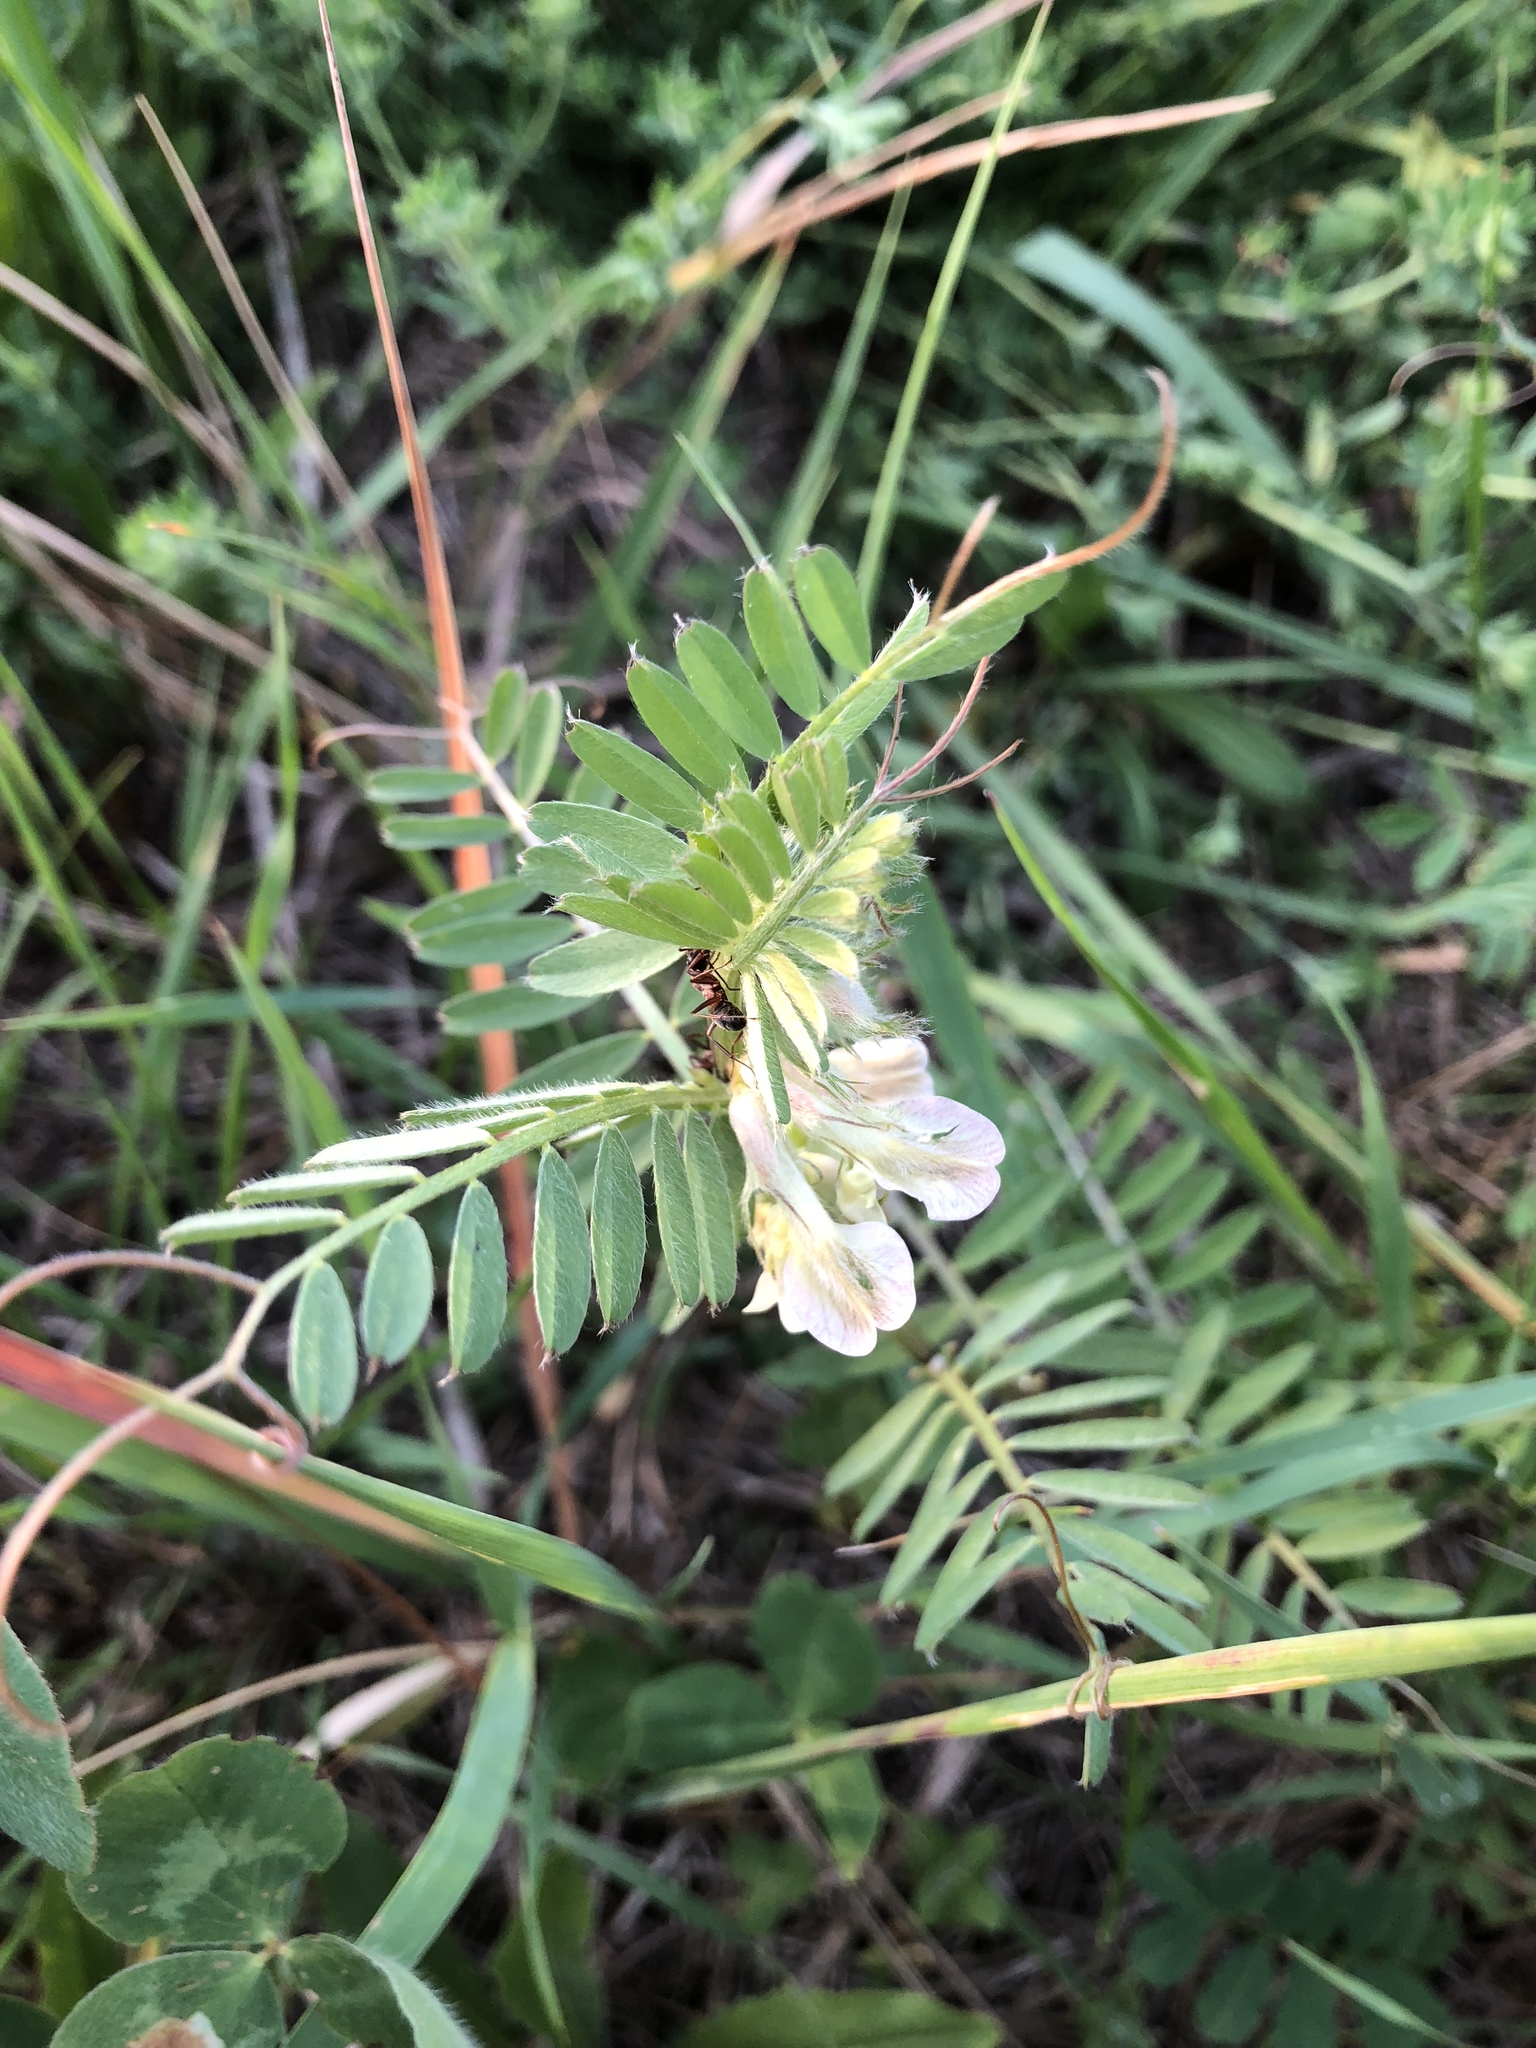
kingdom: Plantae
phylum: Tracheophyta
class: Magnoliopsida
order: Fabales
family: Fabaceae
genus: Vicia
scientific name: Vicia pannonica
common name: Hungarian vetch
